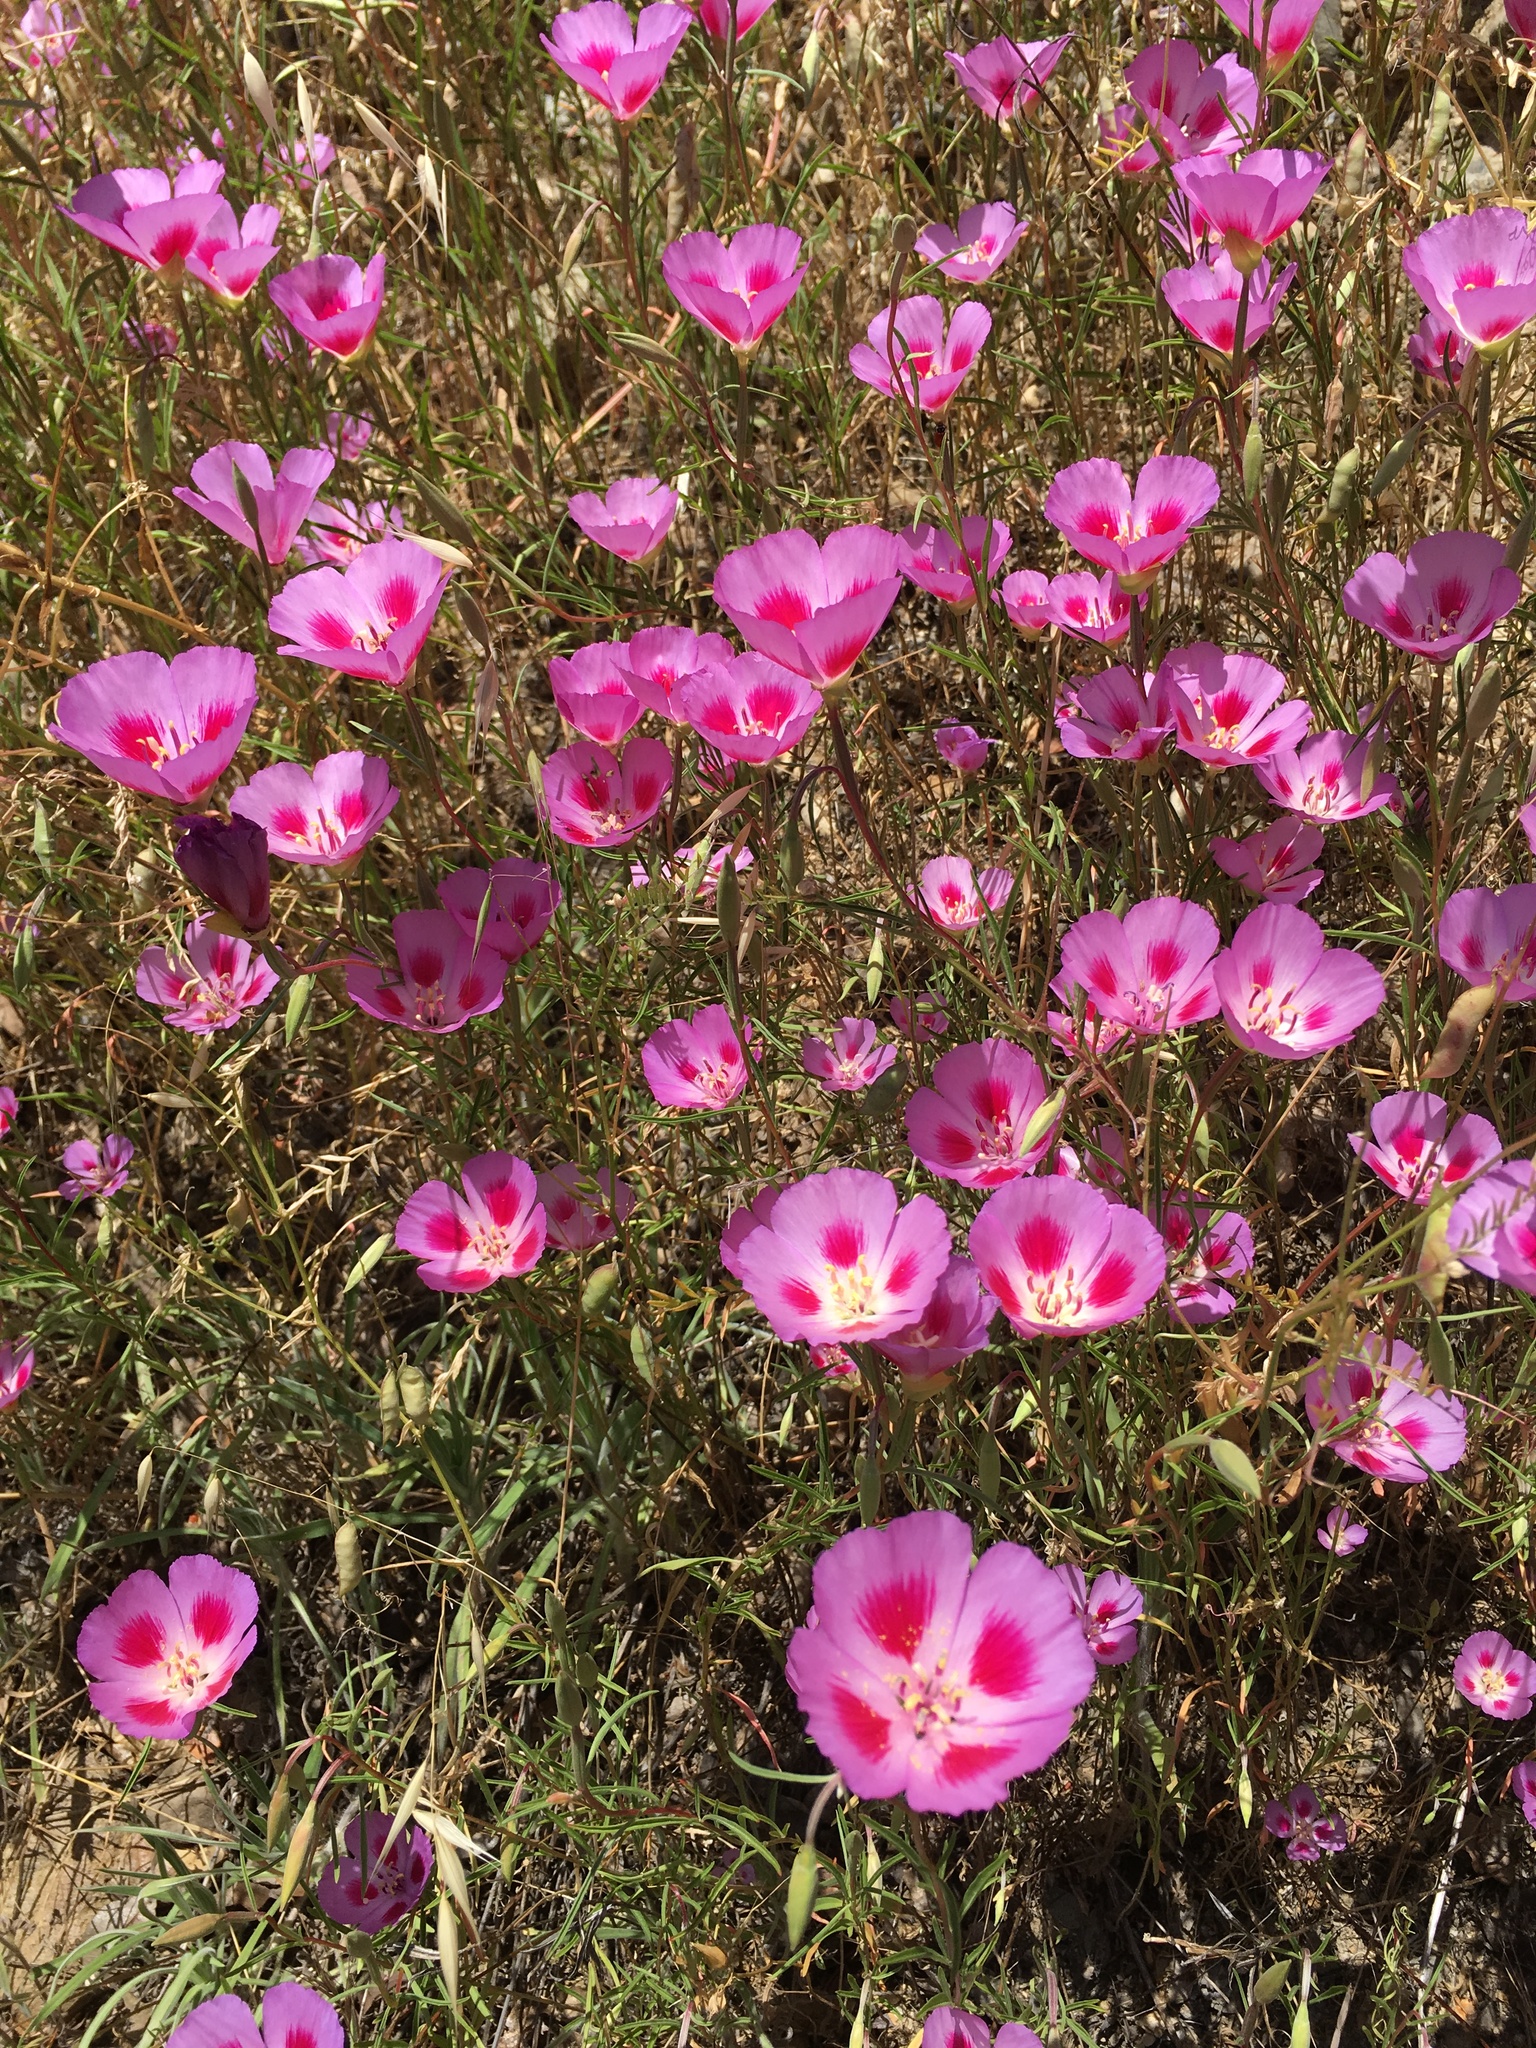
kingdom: Plantae
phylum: Tracheophyta
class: Magnoliopsida
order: Myrtales
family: Onagraceae
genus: Clarkia
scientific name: Clarkia gracilis
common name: Graceful clarkia
